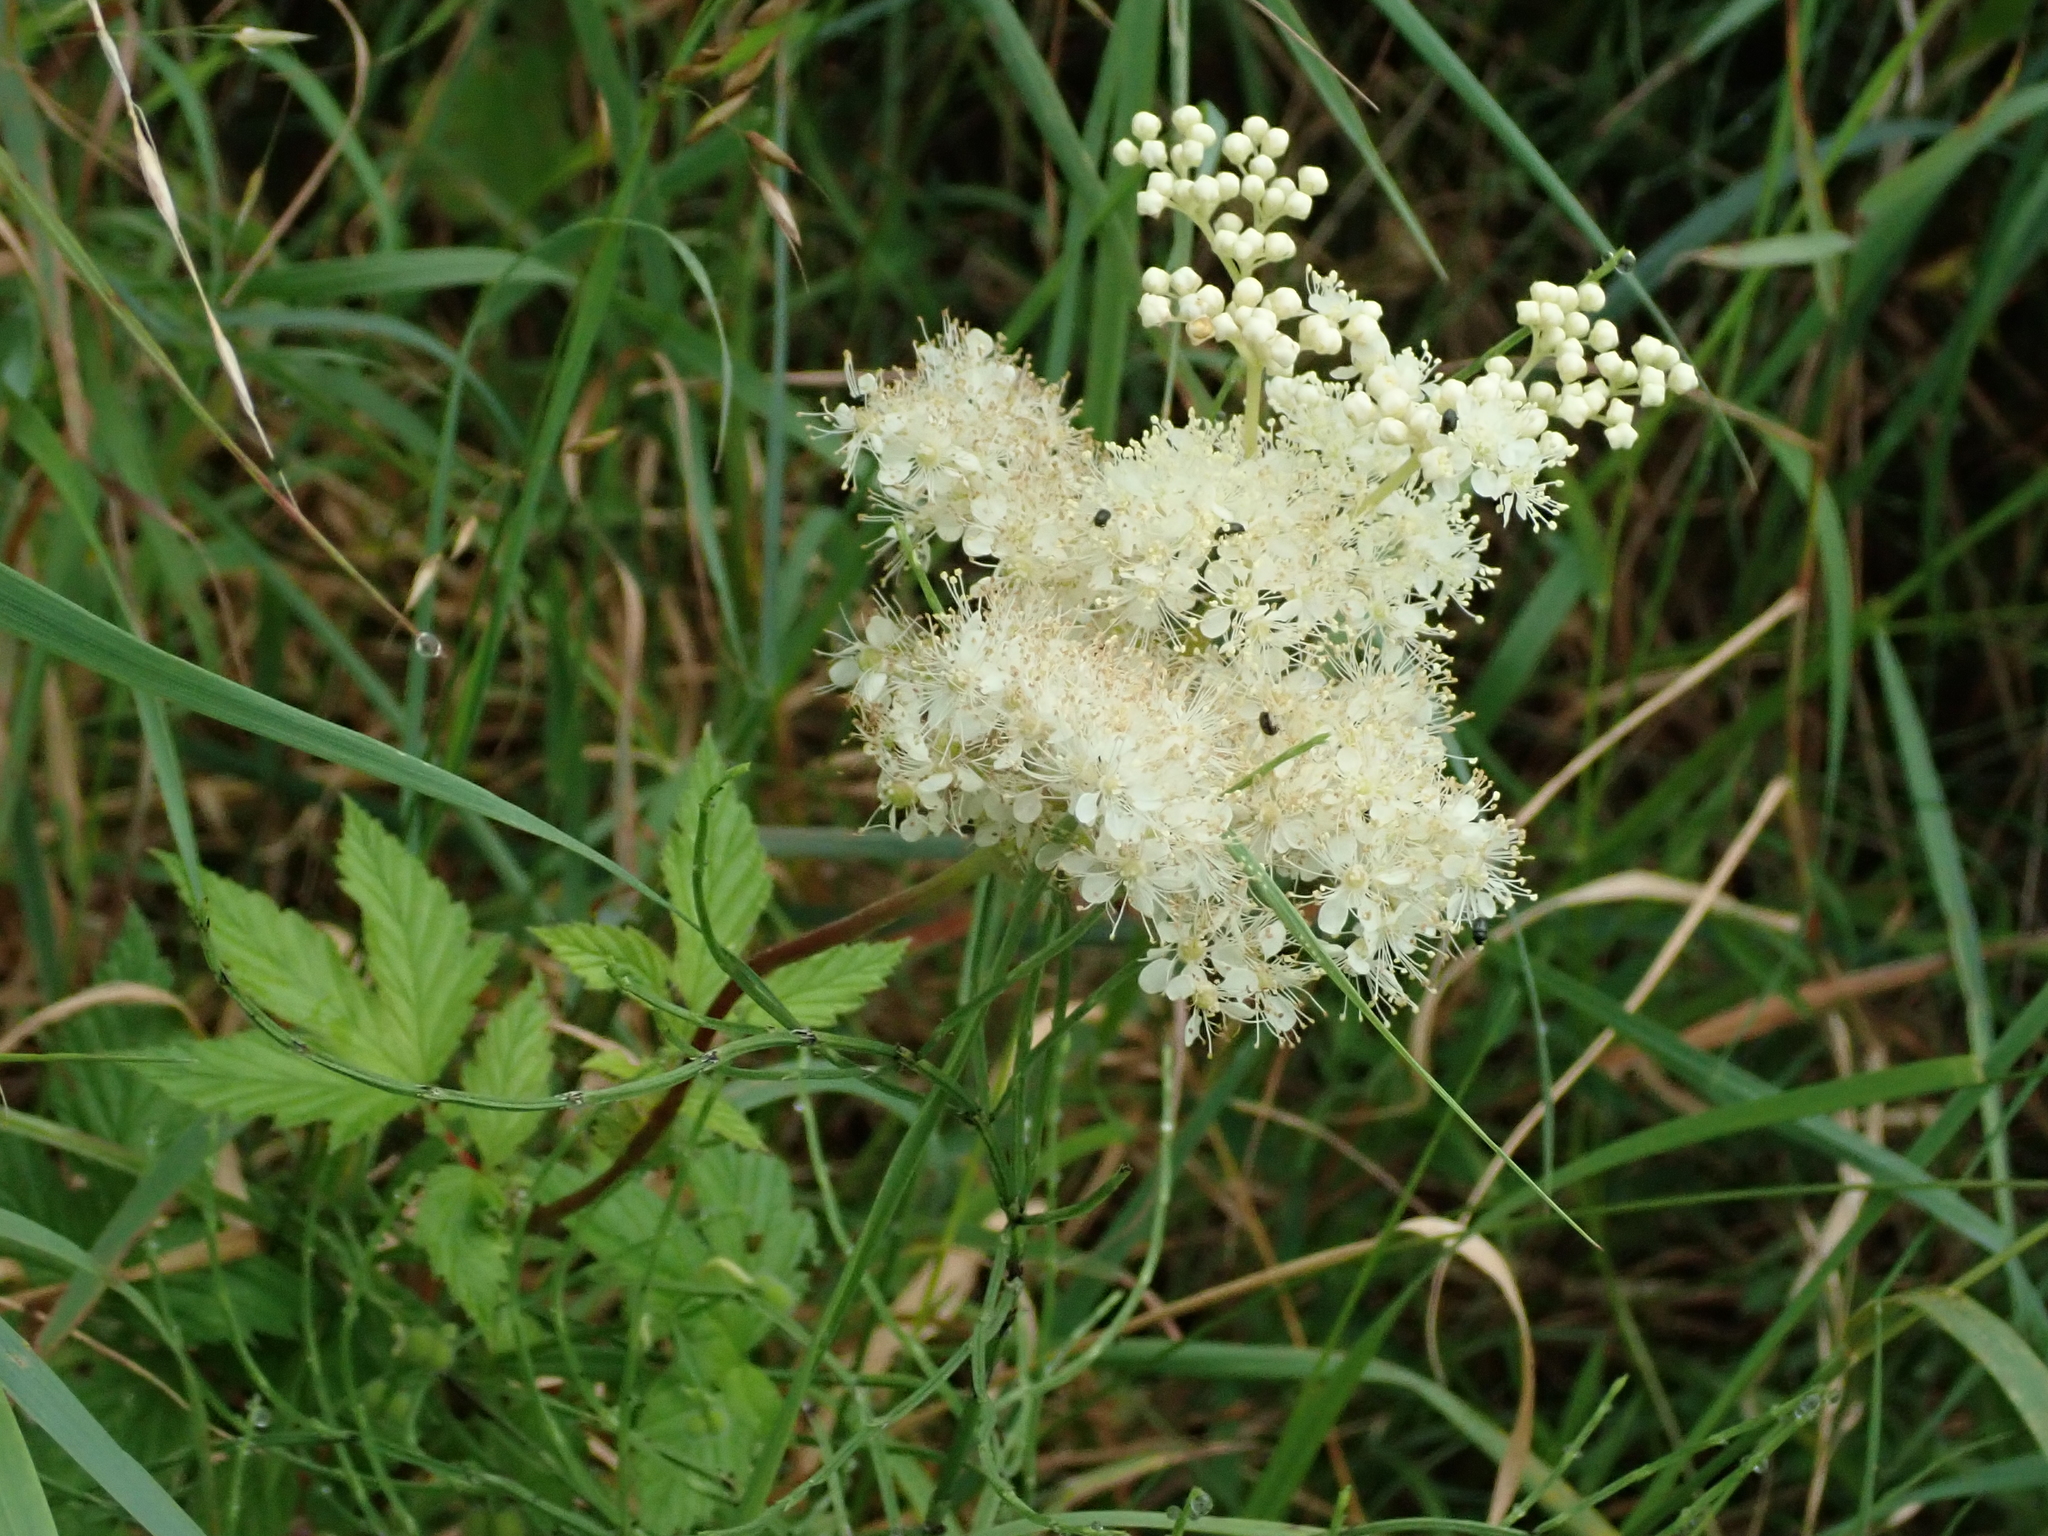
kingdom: Plantae
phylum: Tracheophyta
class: Magnoliopsida
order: Rosales
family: Rosaceae
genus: Filipendula
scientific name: Filipendula ulmaria
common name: Meadowsweet
